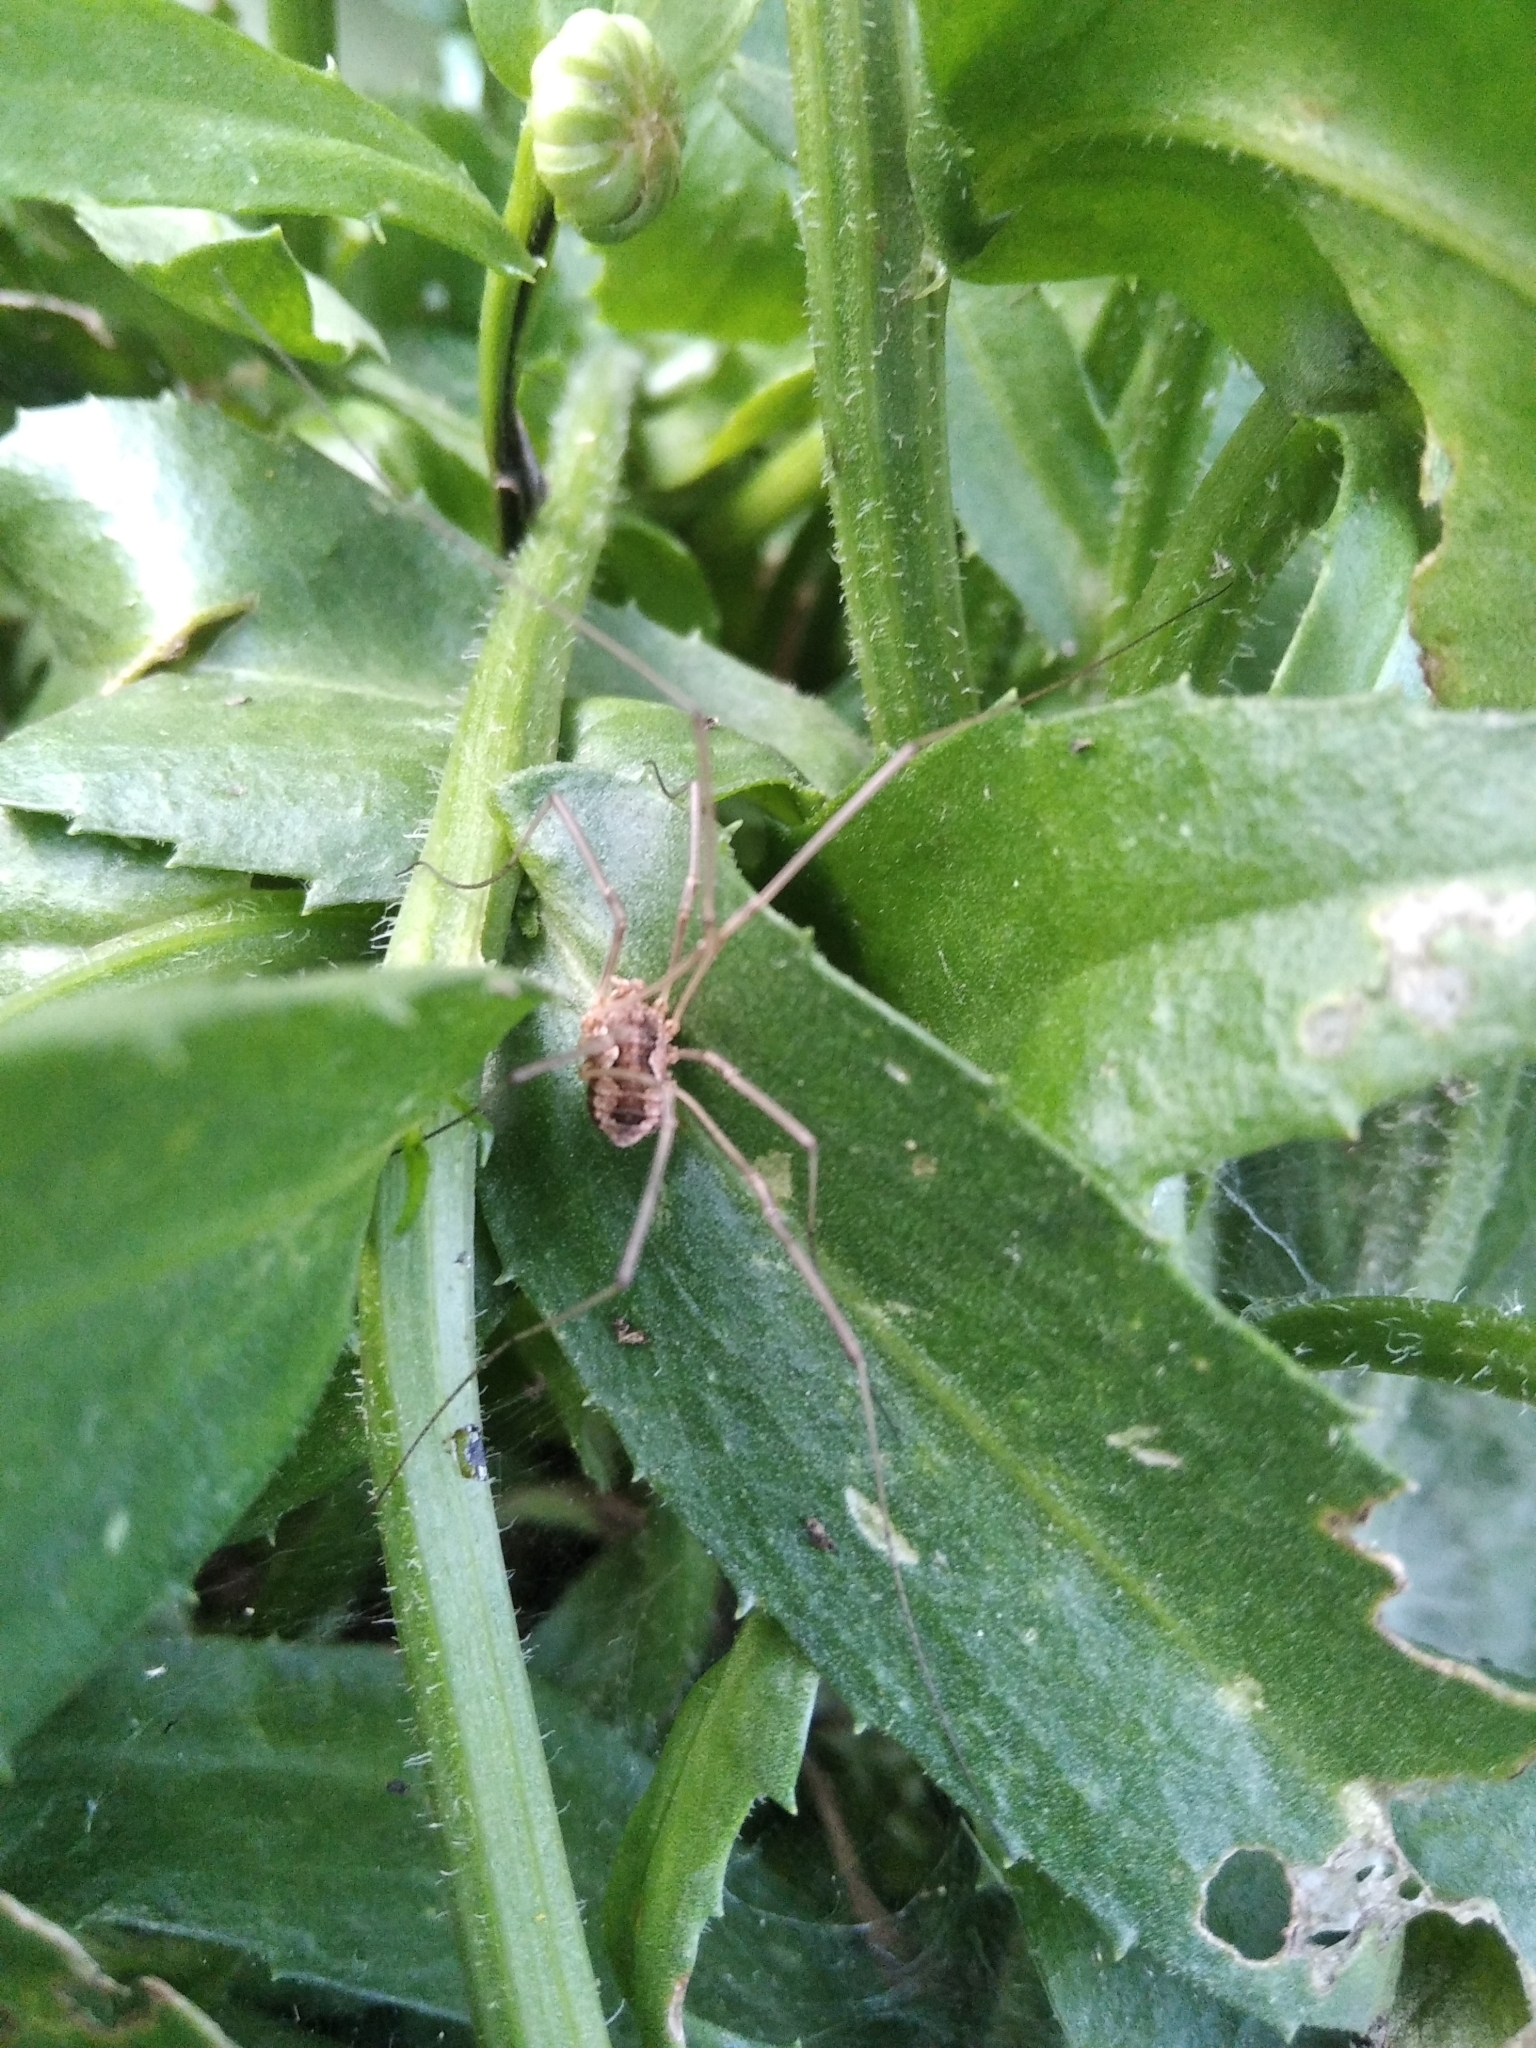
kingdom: Animalia
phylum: Arthropoda
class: Arachnida
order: Opiliones
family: Phalangiidae
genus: Phalangium
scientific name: Phalangium opilio
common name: Daddy longleg
